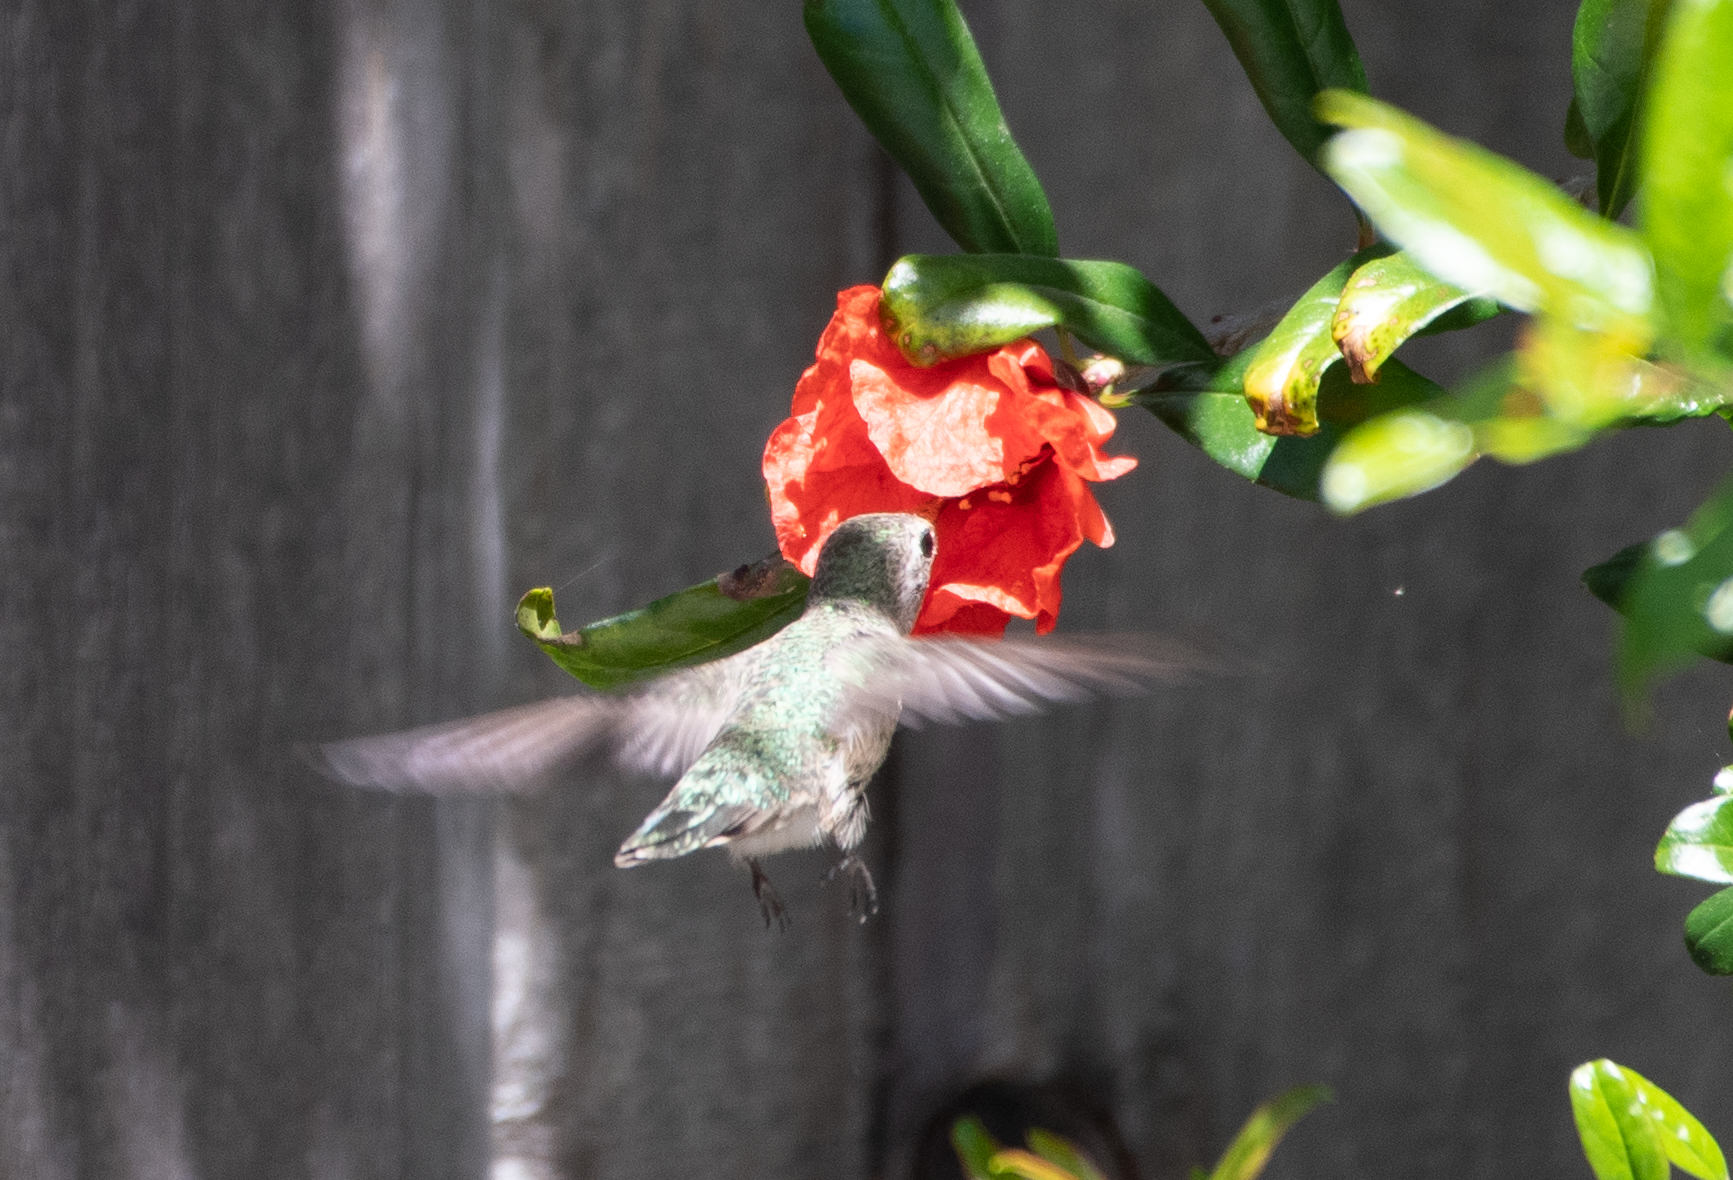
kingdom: Animalia
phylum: Chordata
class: Aves
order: Apodiformes
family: Trochilidae
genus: Calypte
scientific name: Calypte anna
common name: Anna's hummingbird
